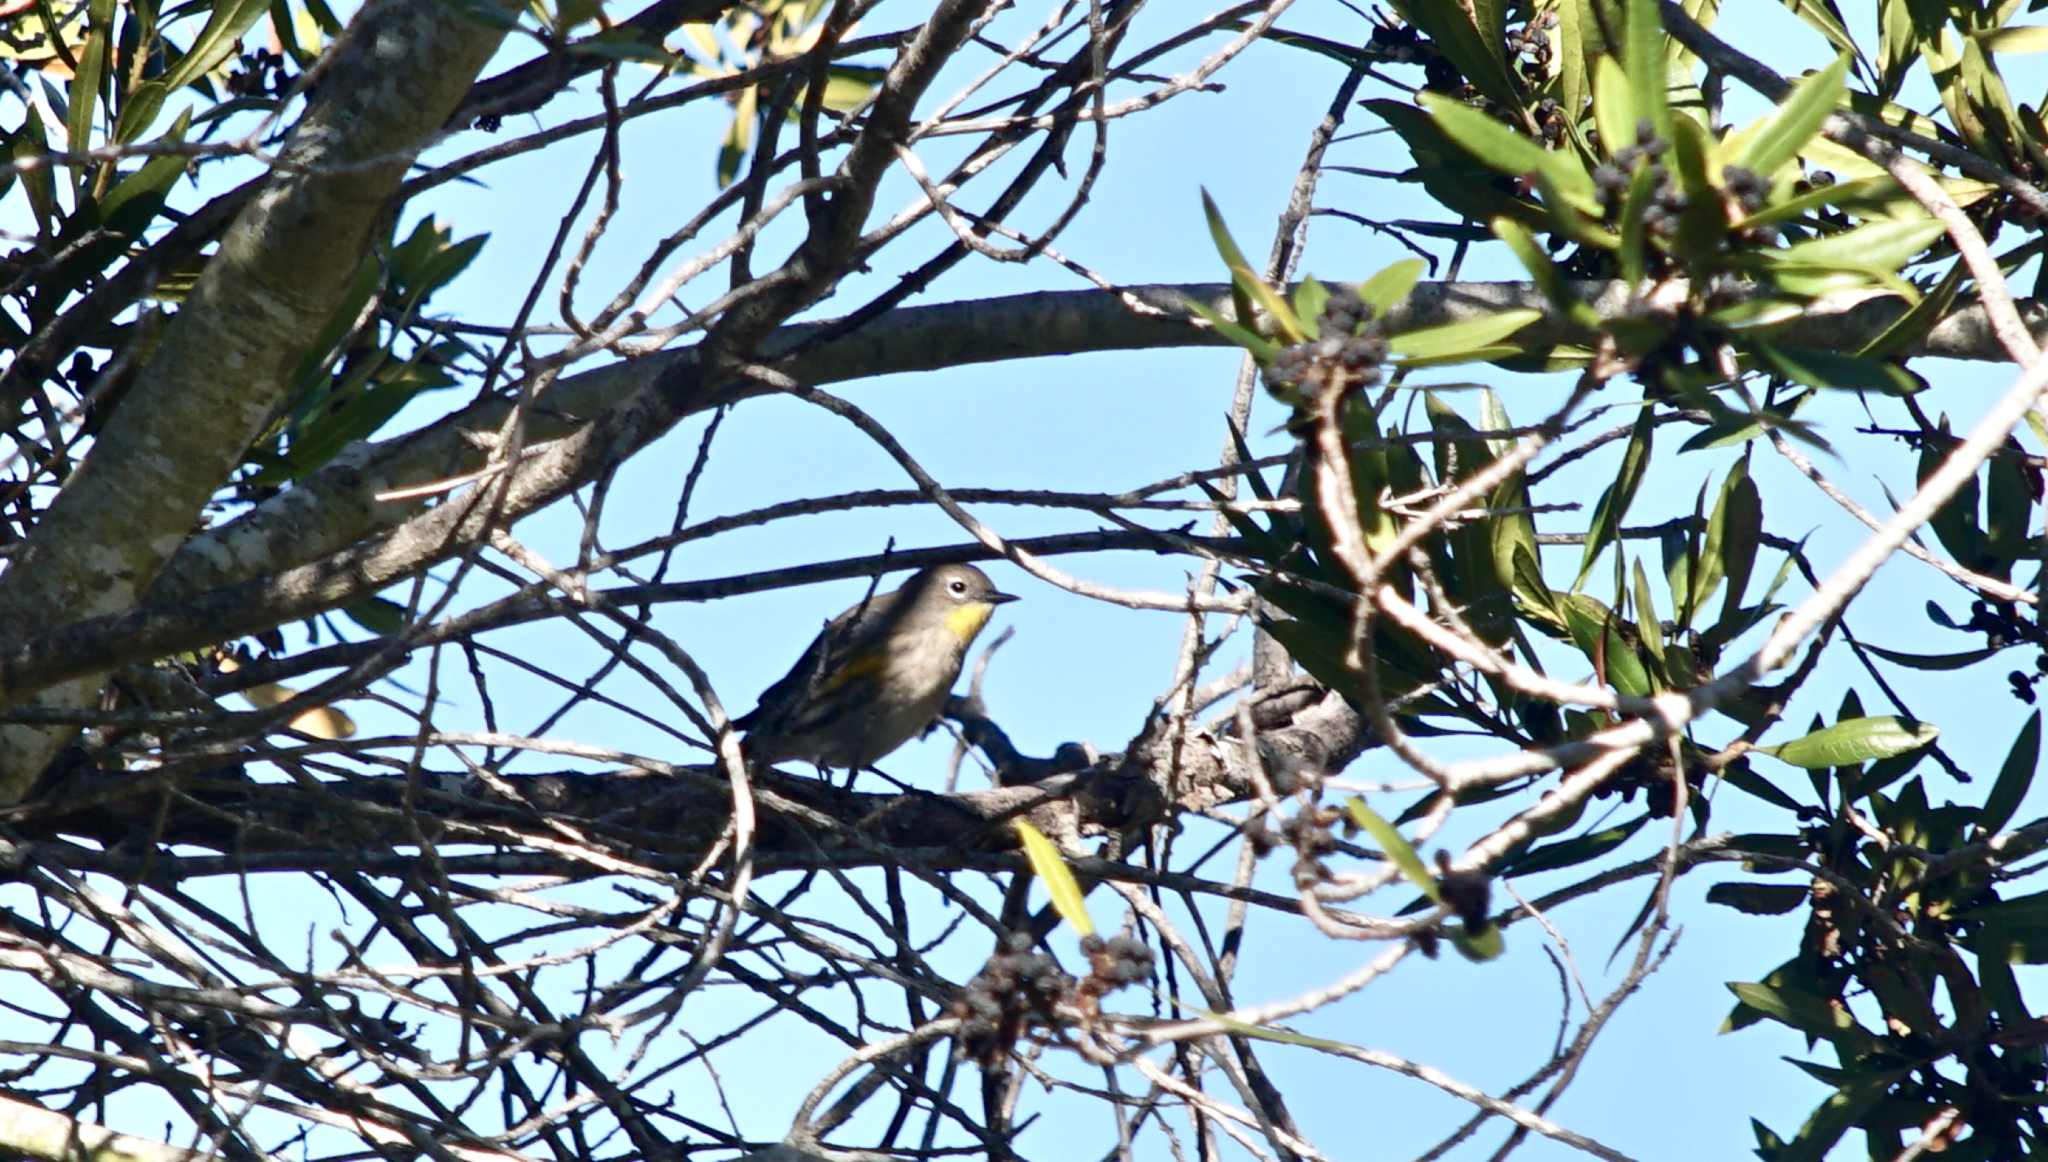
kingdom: Animalia
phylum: Chordata
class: Aves
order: Passeriformes
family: Parulidae
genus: Setophaga
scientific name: Setophaga coronata
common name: Myrtle warbler
